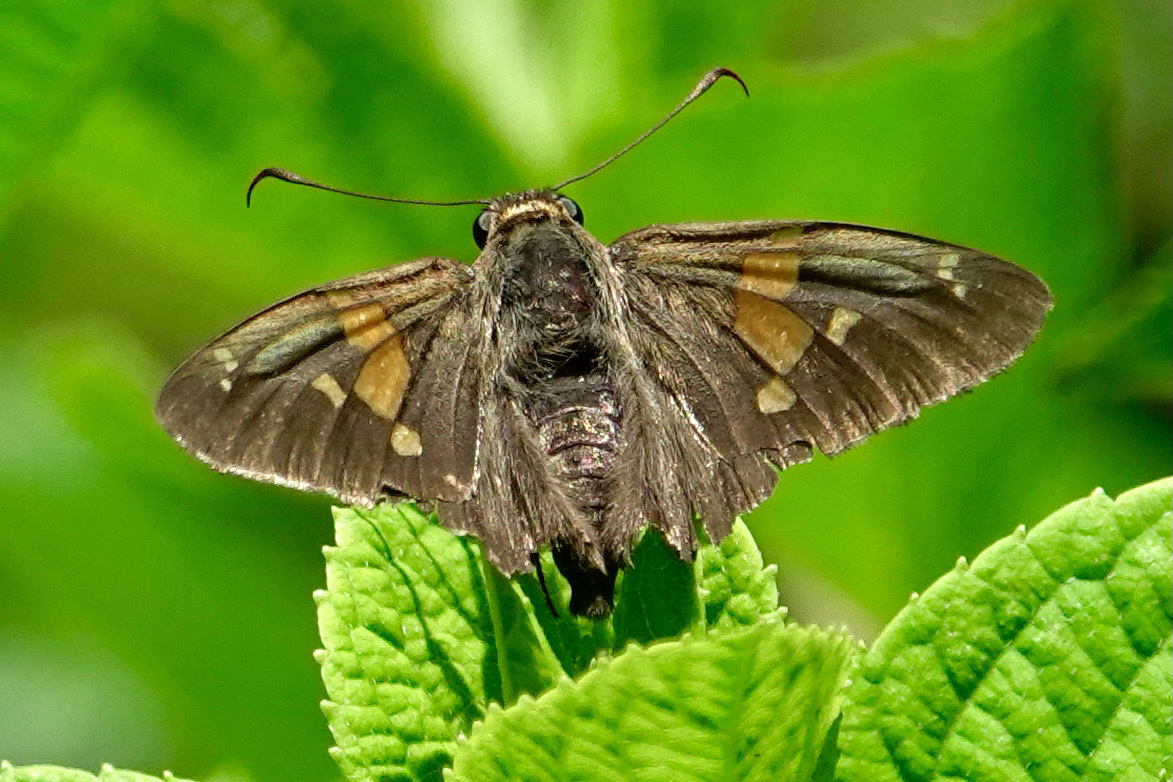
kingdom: Animalia
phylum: Arthropoda
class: Insecta
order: Lepidoptera
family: Hesperiidae
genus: Epargyreus
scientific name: Epargyreus clarus
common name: Silver-spotted skipper
